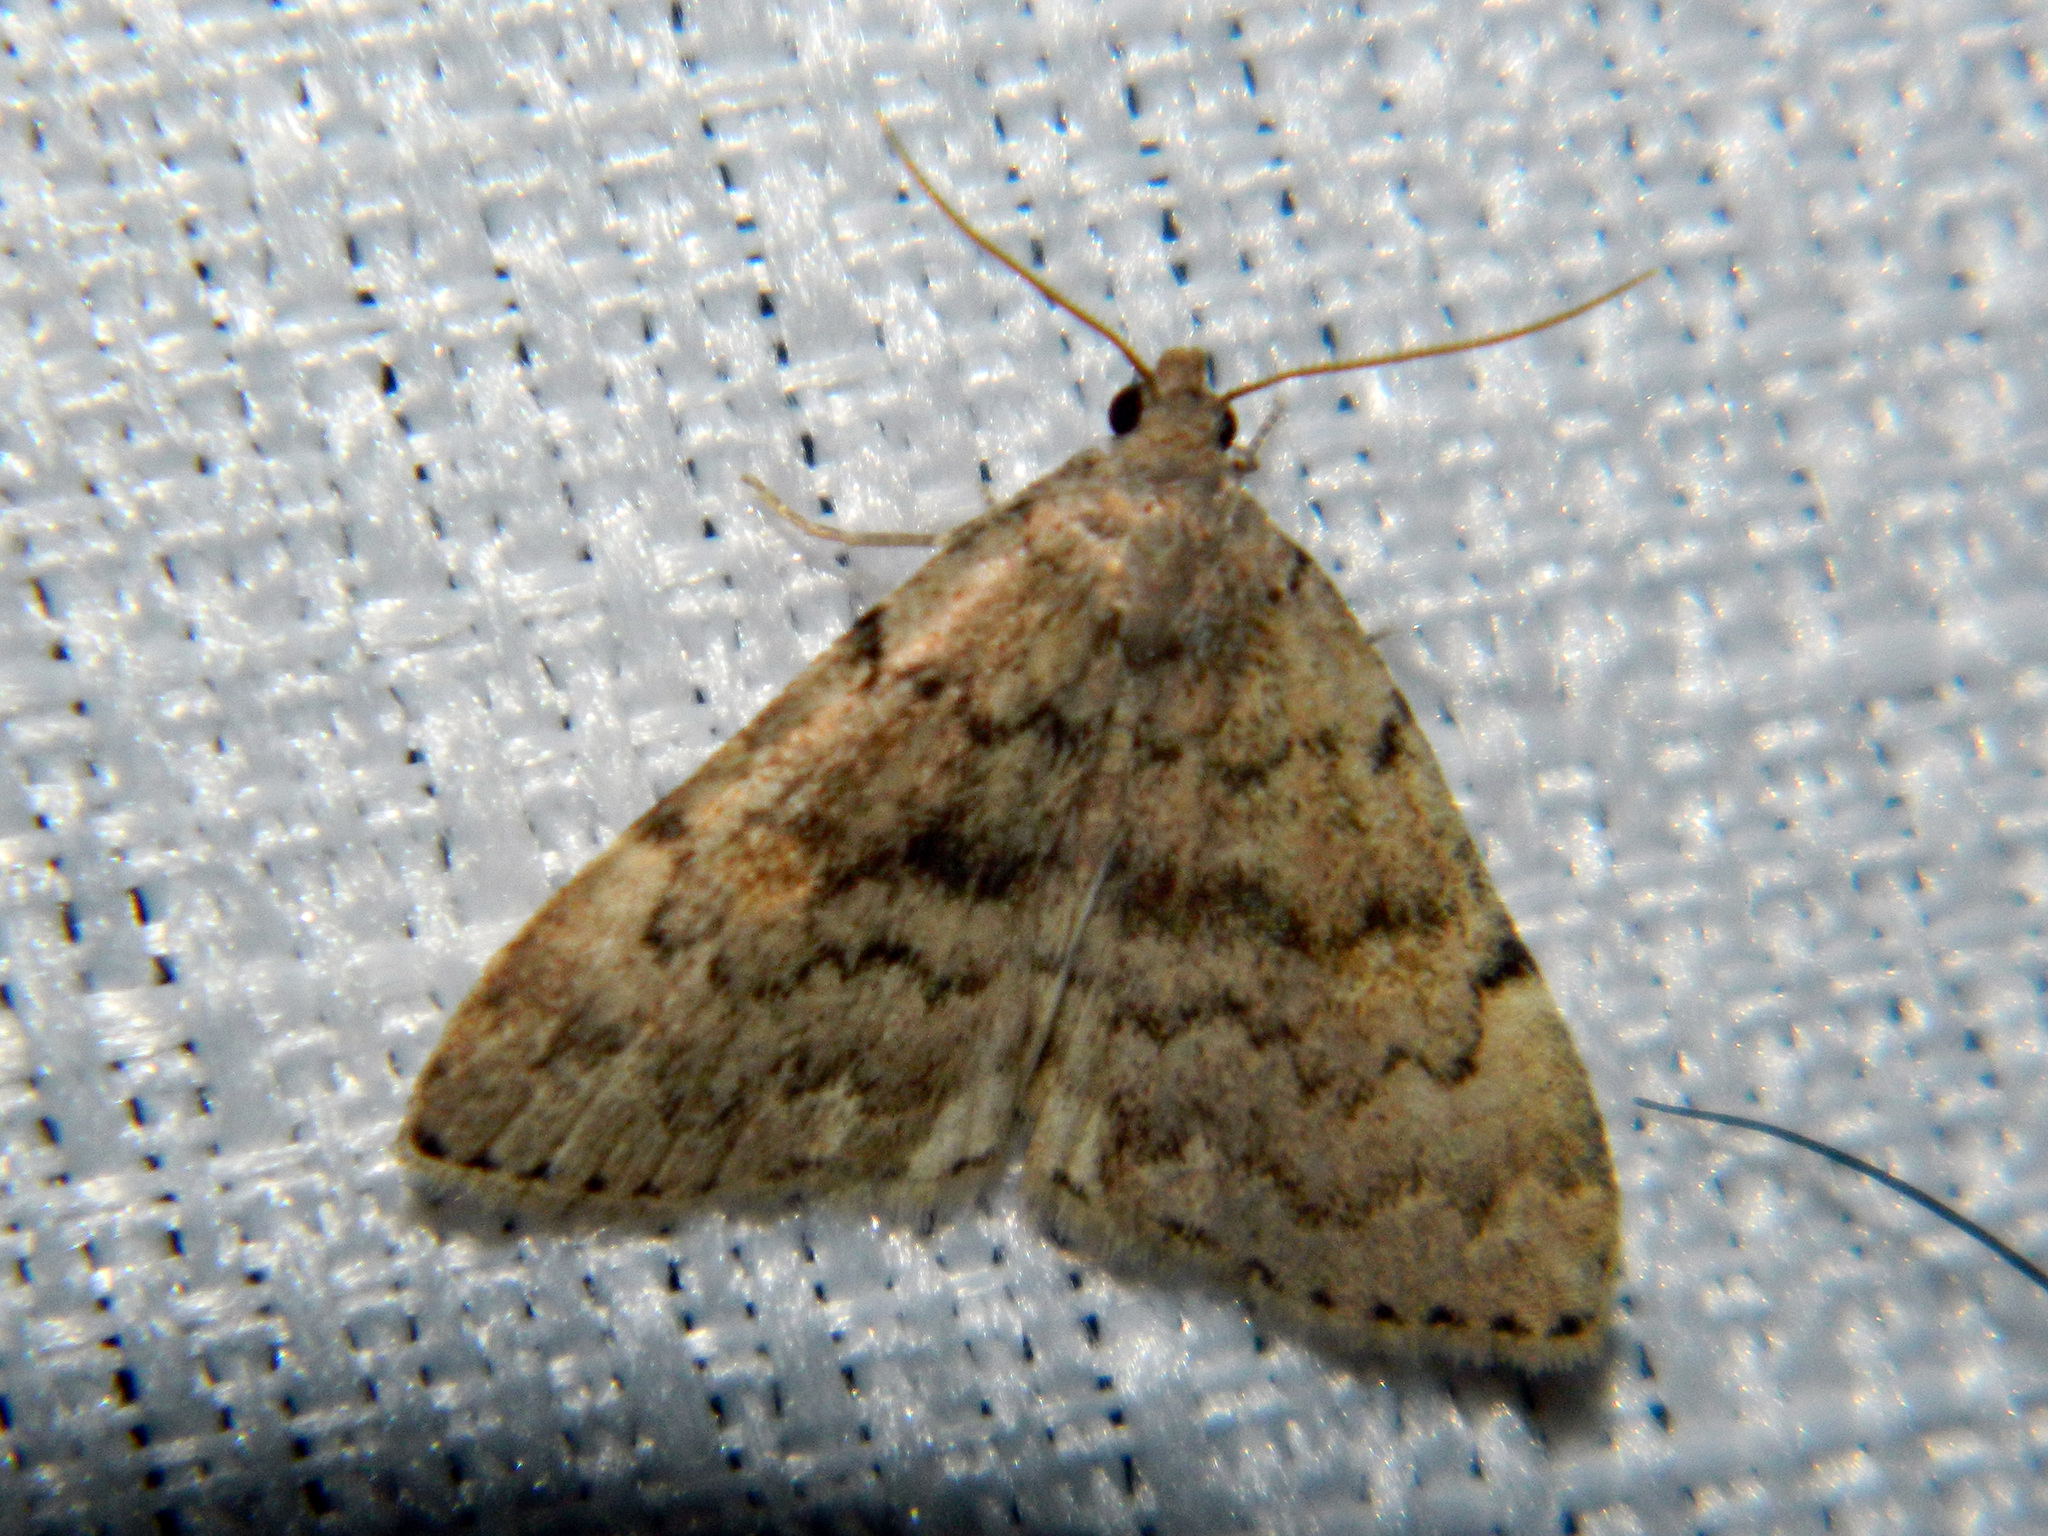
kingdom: Animalia
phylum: Arthropoda
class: Insecta
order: Lepidoptera
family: Erebidae
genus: Idia
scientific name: Idia aemula
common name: Common idia moth
